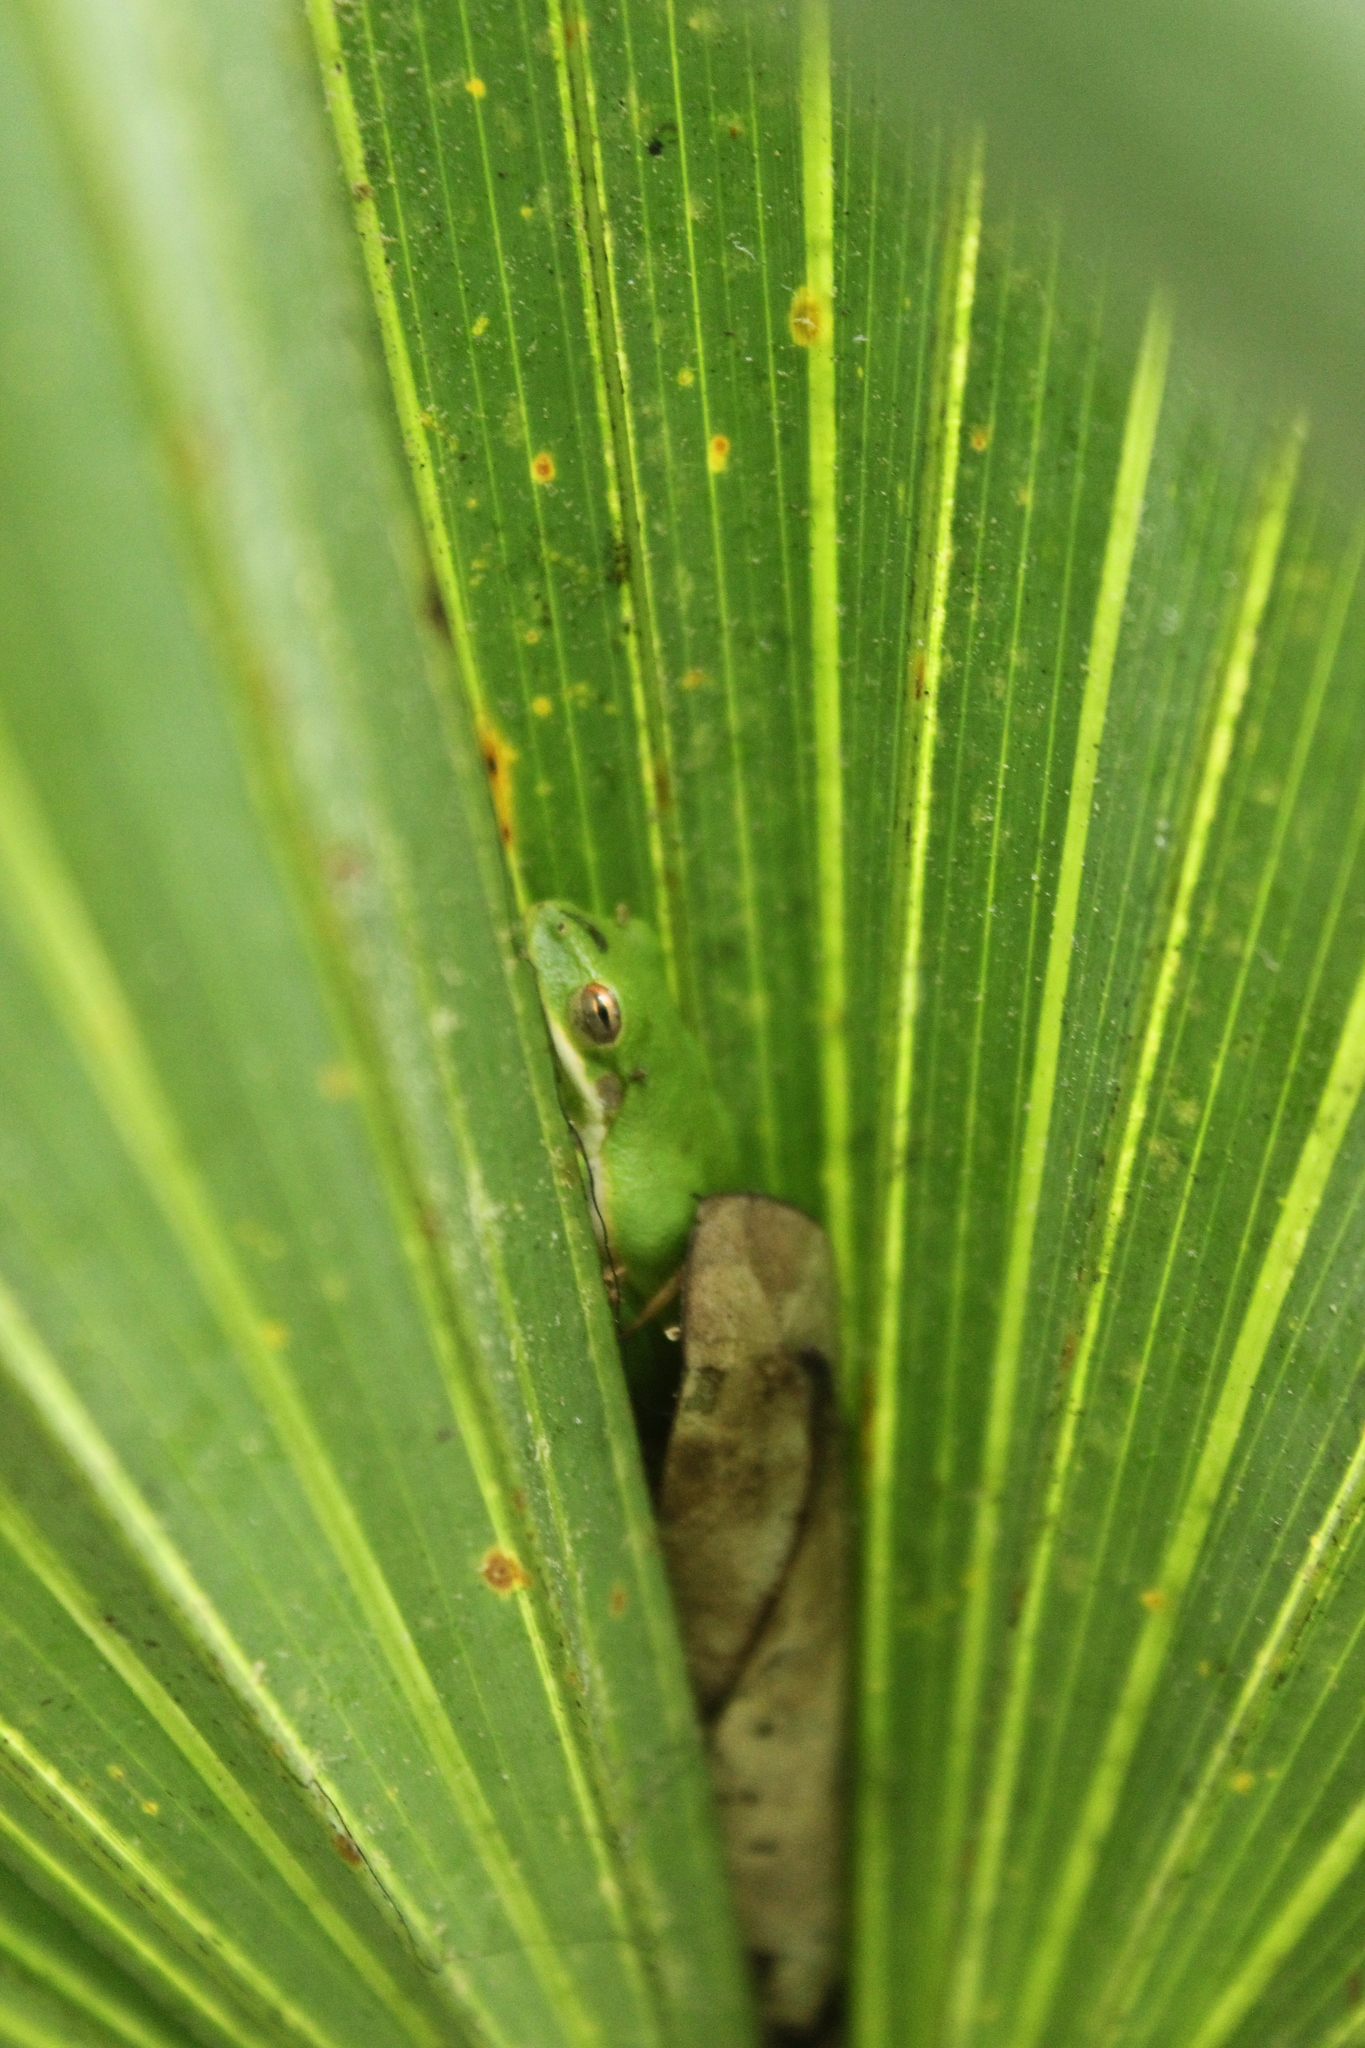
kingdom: Animalia
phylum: Chordata
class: Amphibia
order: Anura
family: Hylidae
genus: Dryophytes
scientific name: Dryophytes cinereus
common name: Green treefrog
